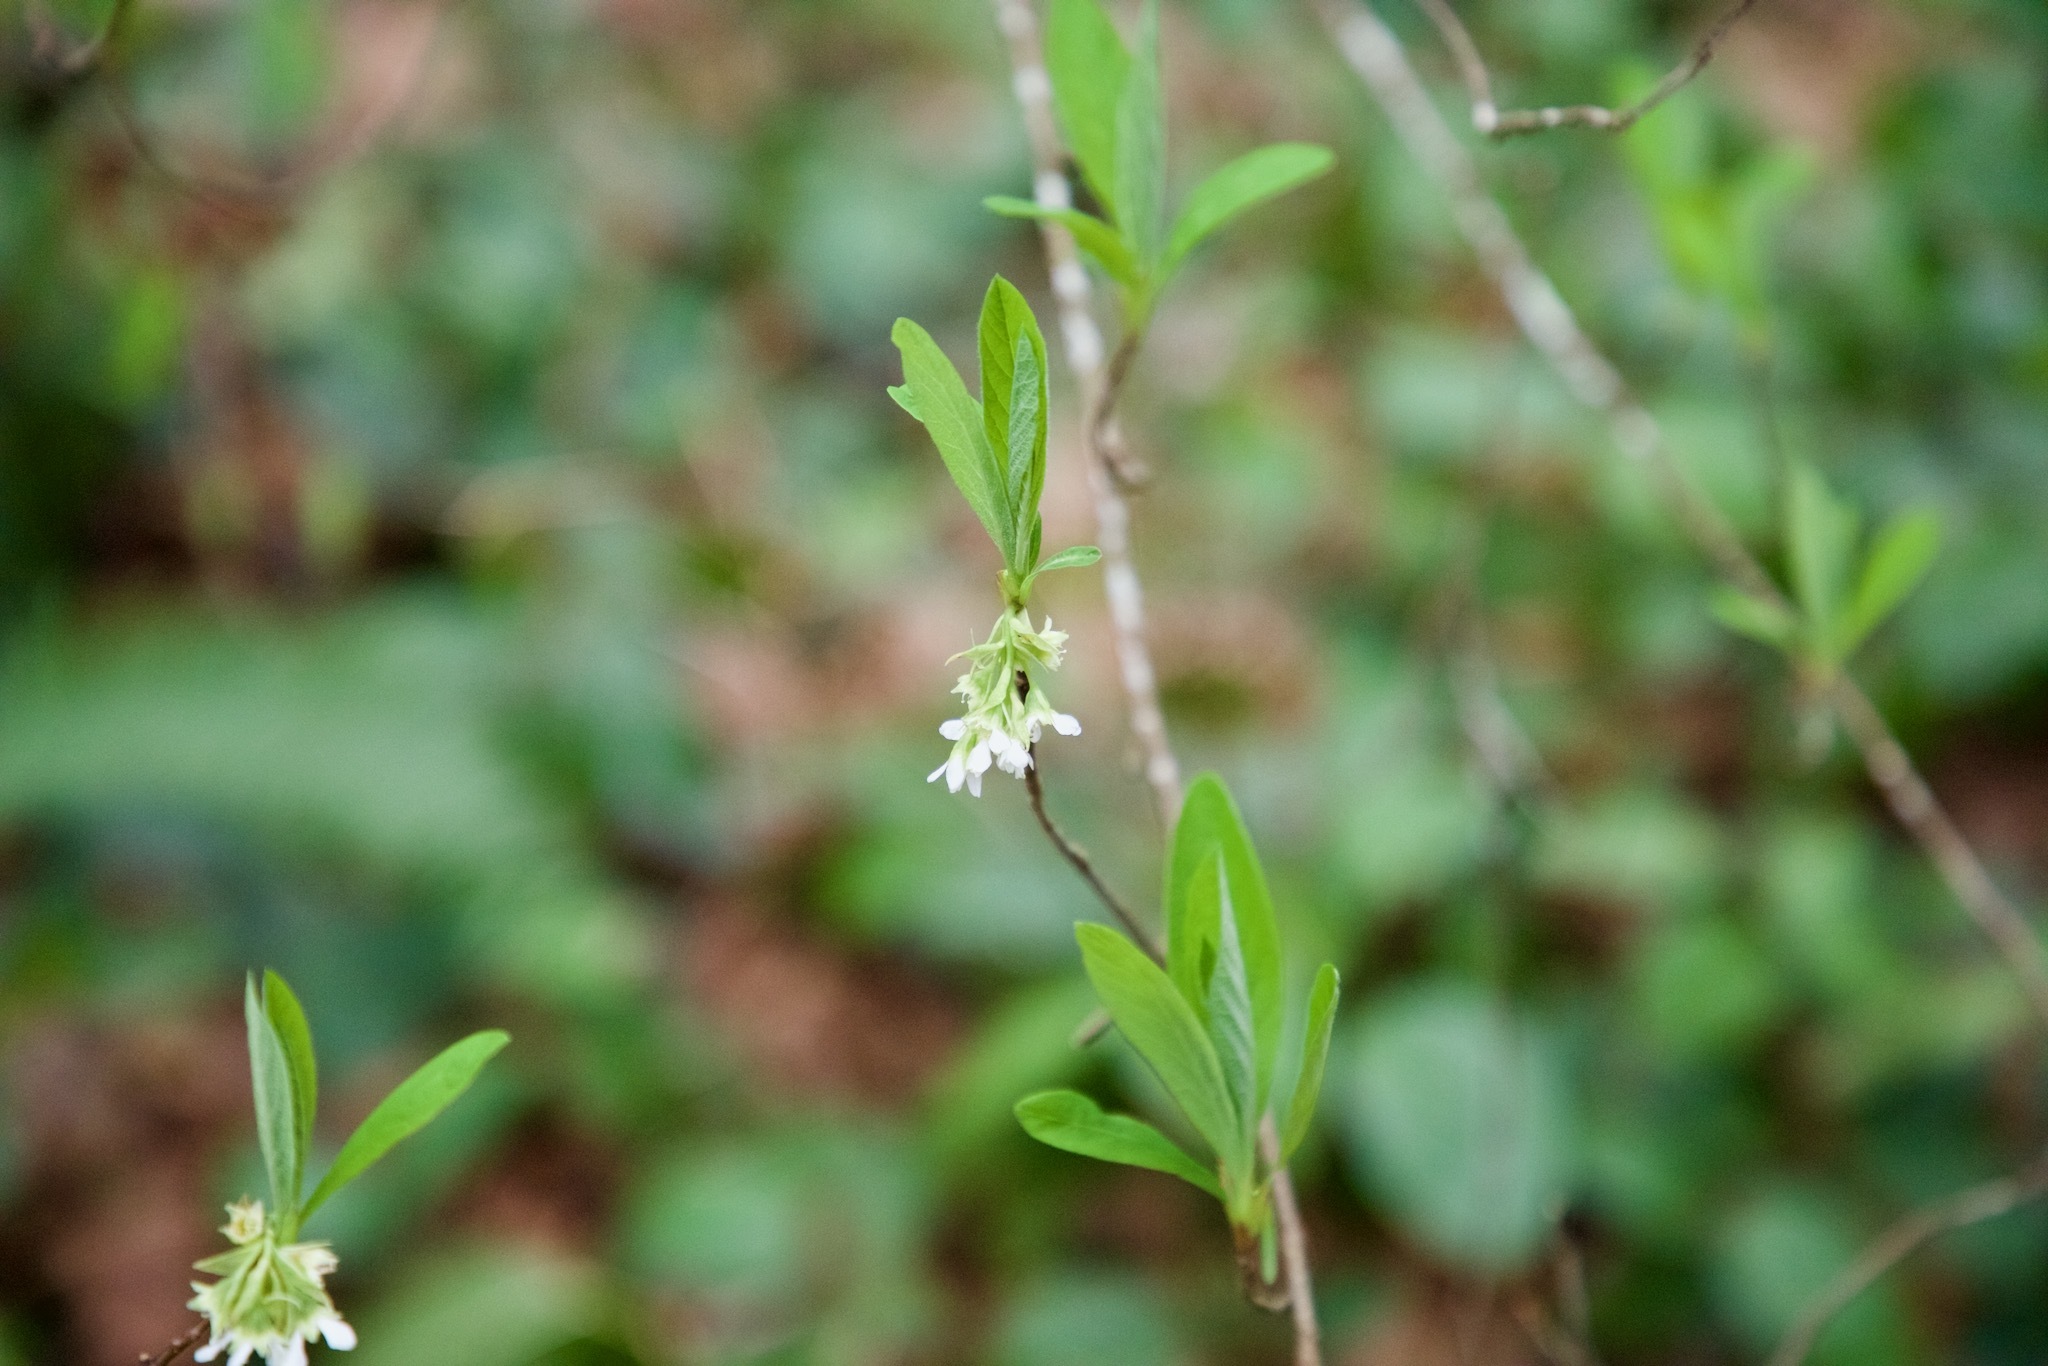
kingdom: Plantae
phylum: Tracheophyta
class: Magnoliopsida
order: Rosales
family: Rosaceae
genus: Oemleria
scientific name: Oemleria cerasiformis
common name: Osoberry
